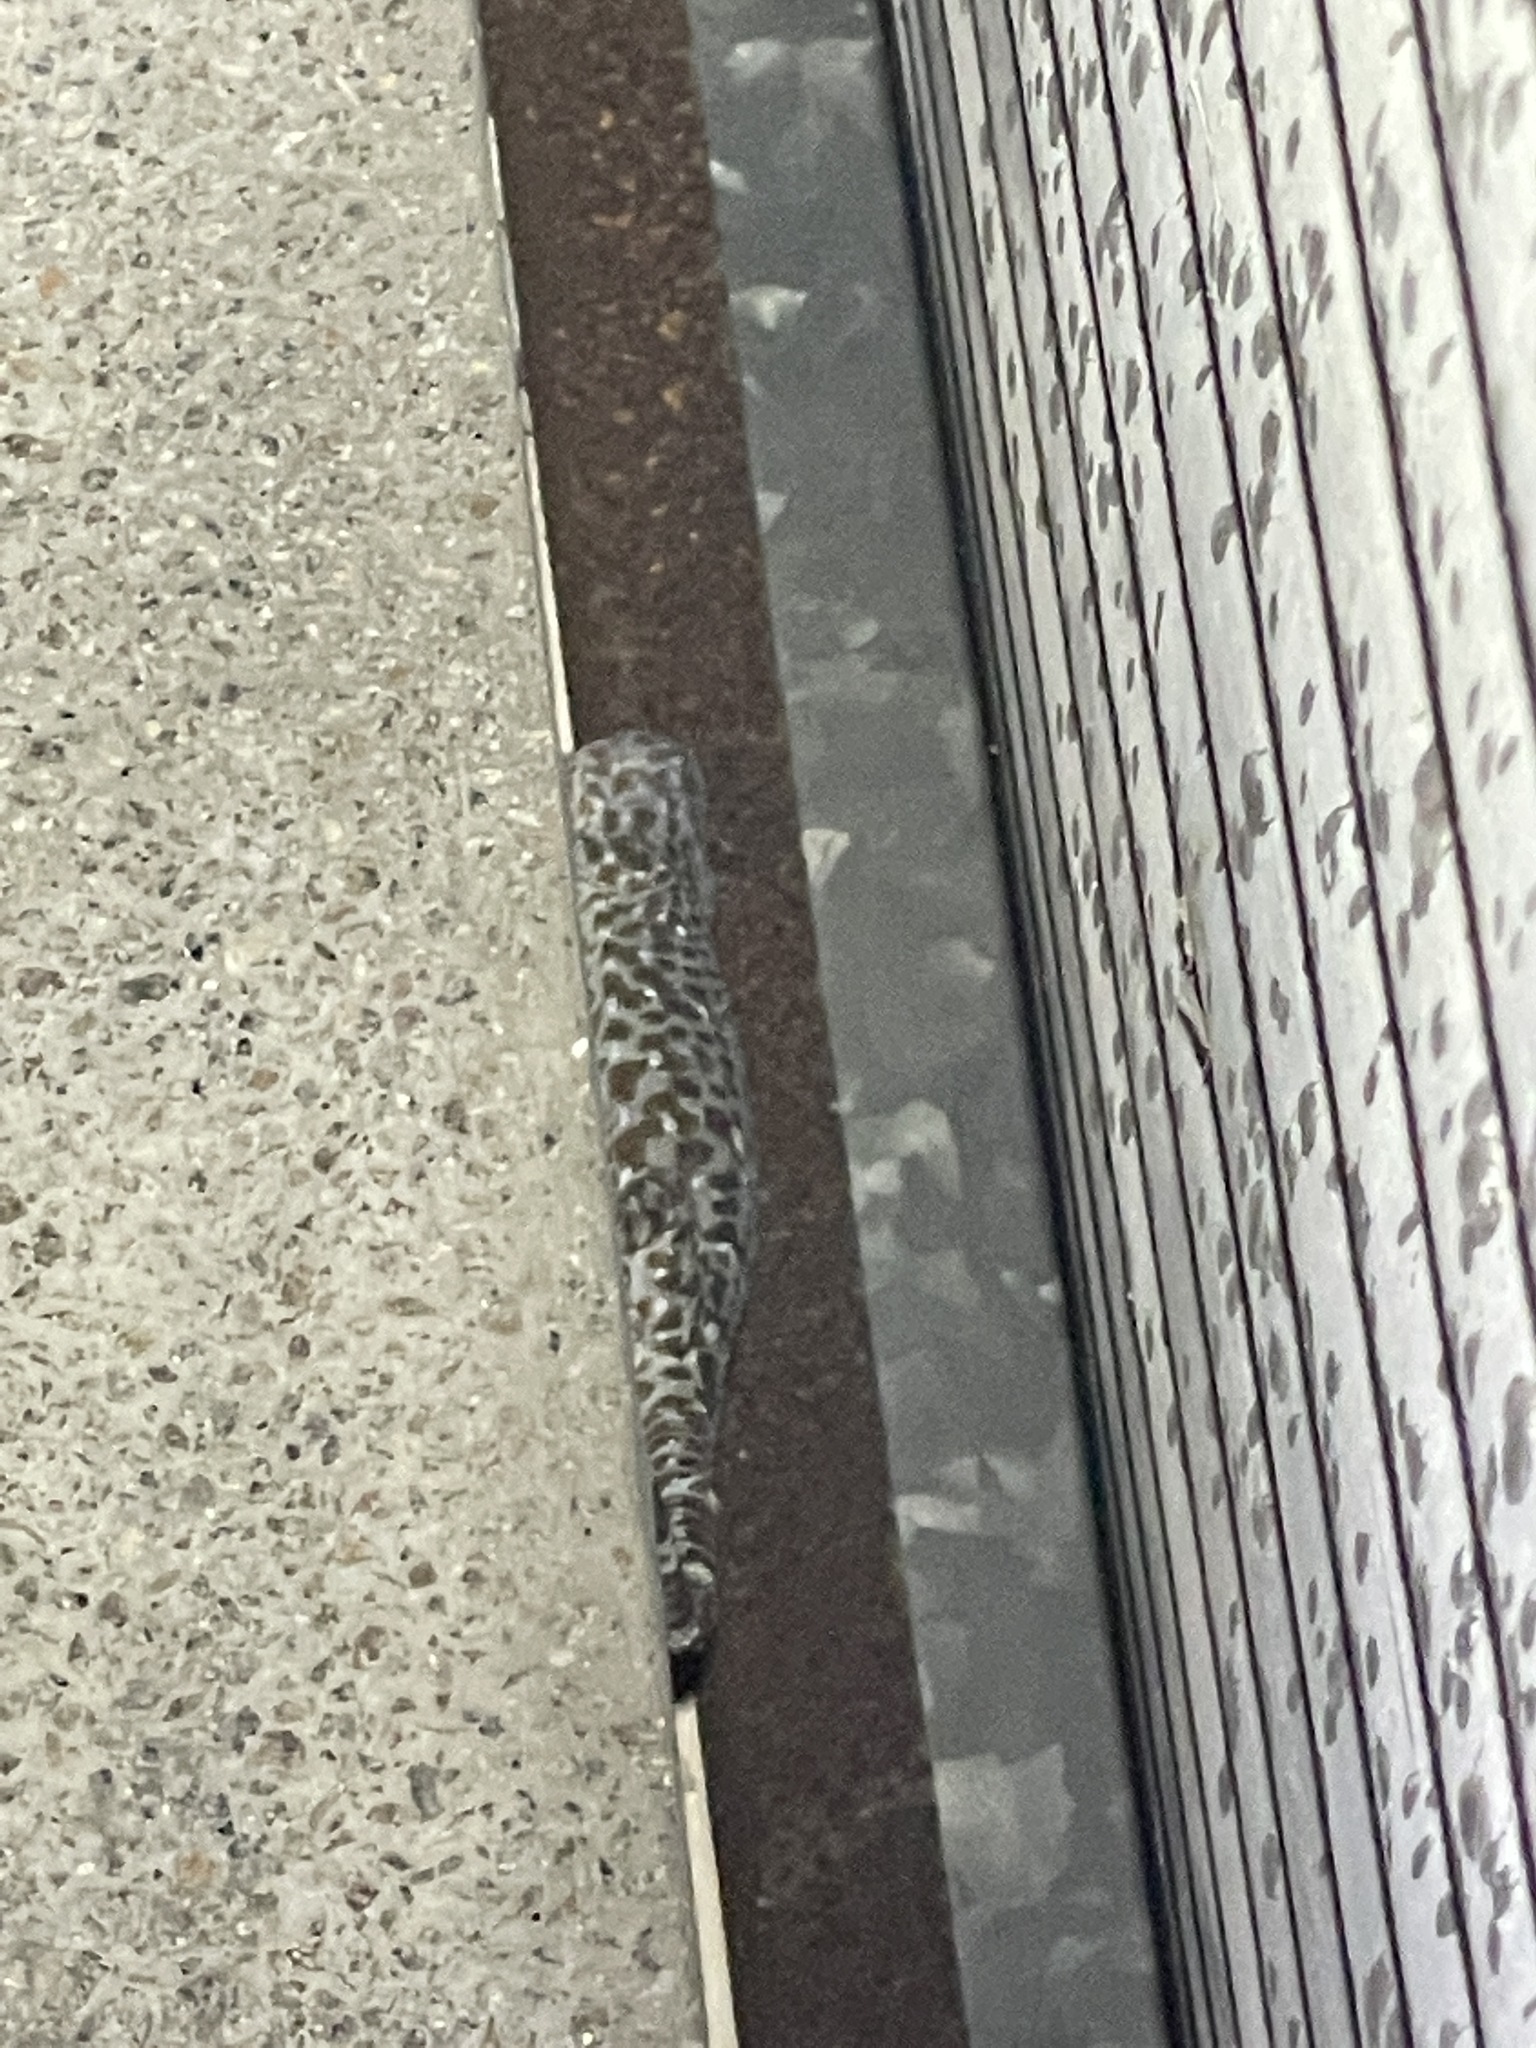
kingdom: Animalia
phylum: Chordata
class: Squamata
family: Gekkonidae
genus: Gekko
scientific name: Gekko gecko
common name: Tokay gecko
